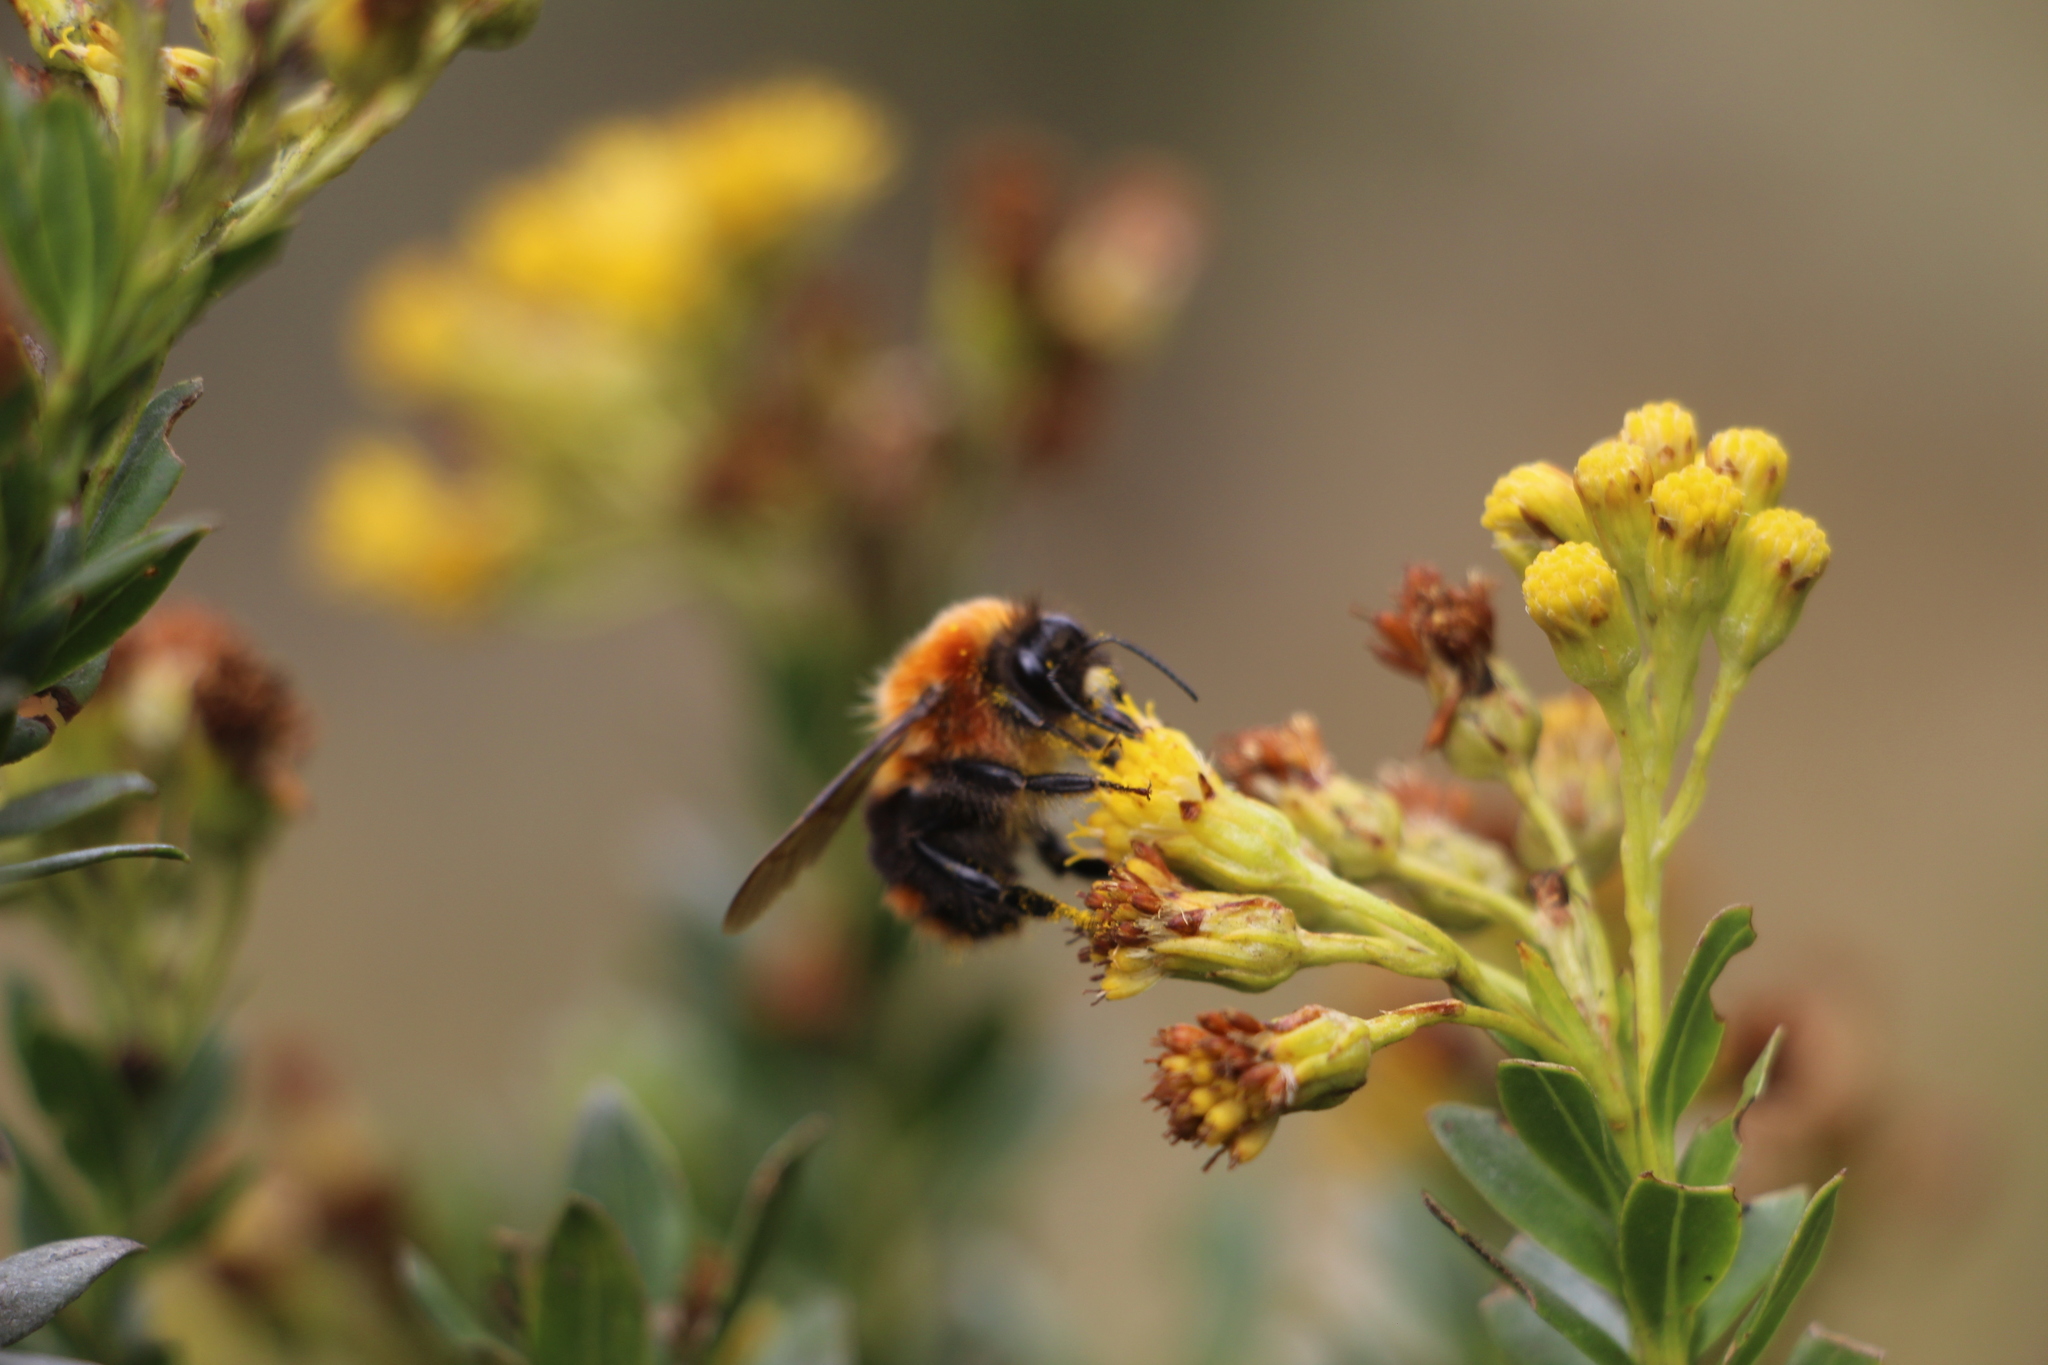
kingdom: Animalia
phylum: Arthropoda
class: Insecta
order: Hymenoptera
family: Apidae
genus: Bombus
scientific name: Bombus rubicundus
